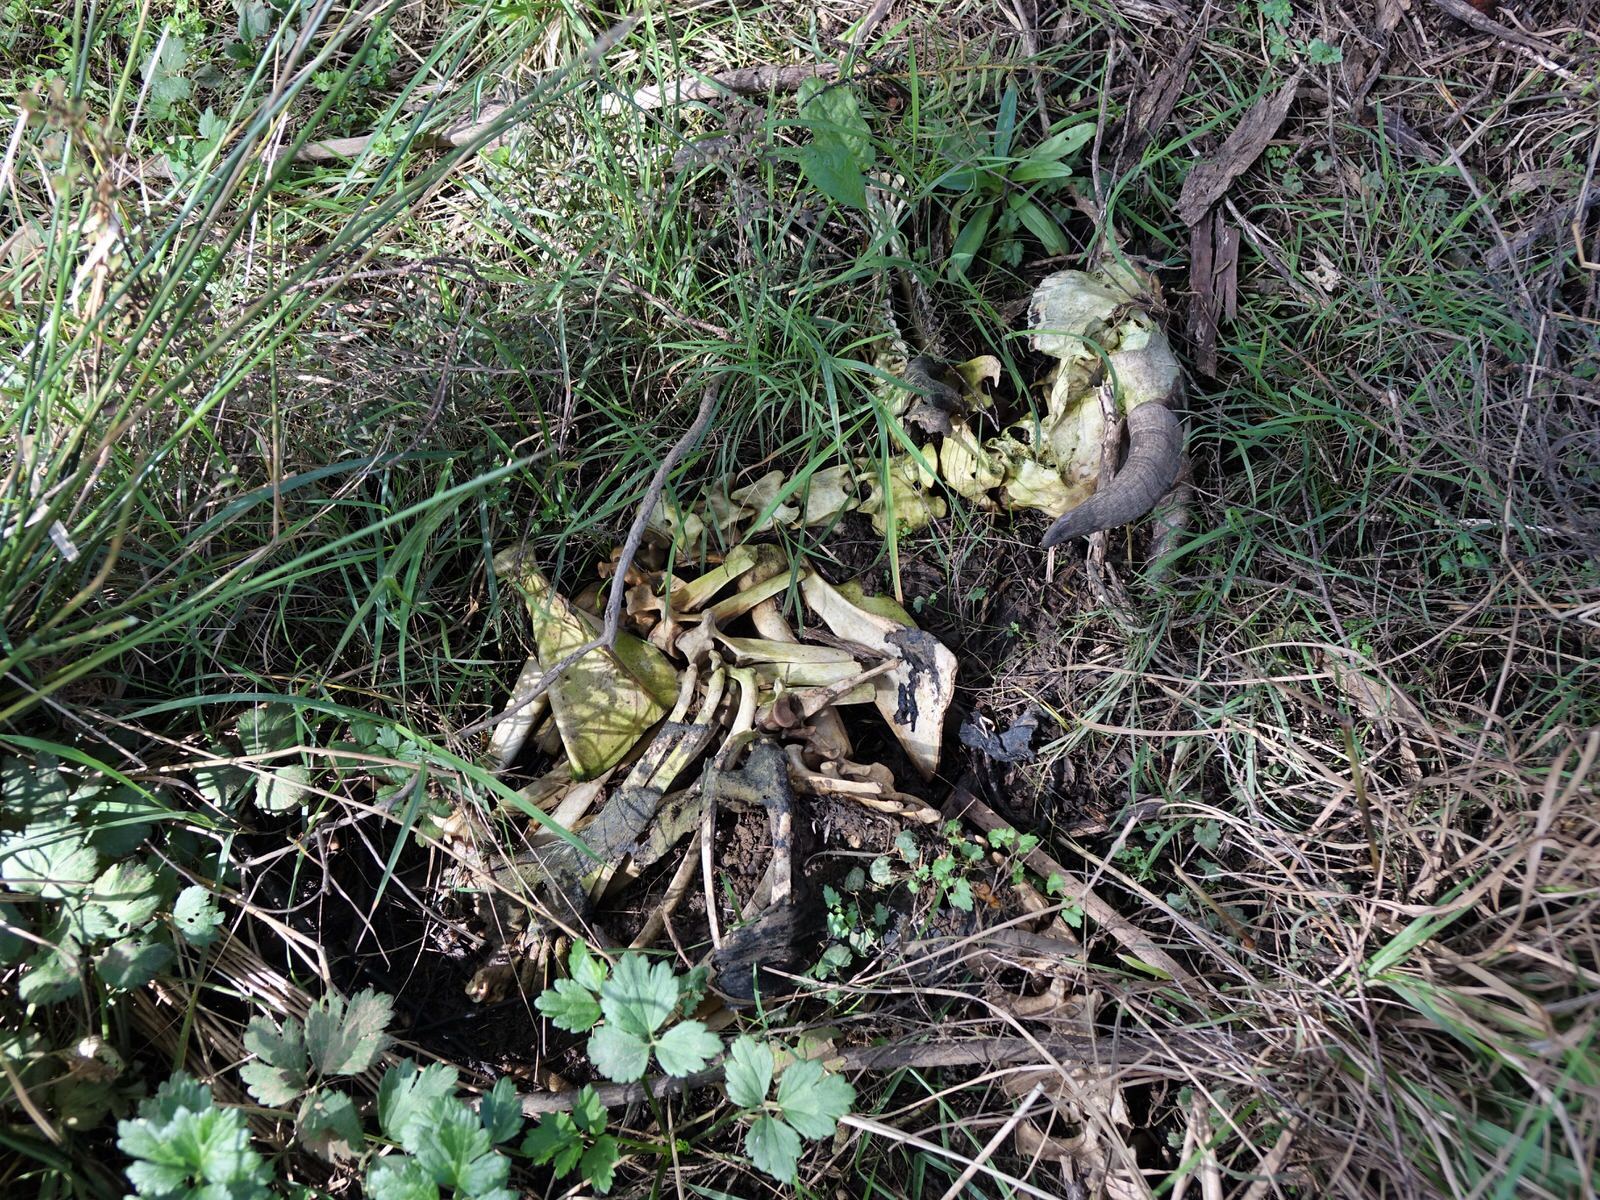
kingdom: Animalia
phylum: Chordata
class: Mammalia
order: Artiodactyla
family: Bovidae
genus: Capra
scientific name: Capra hircus
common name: Domestic goat
